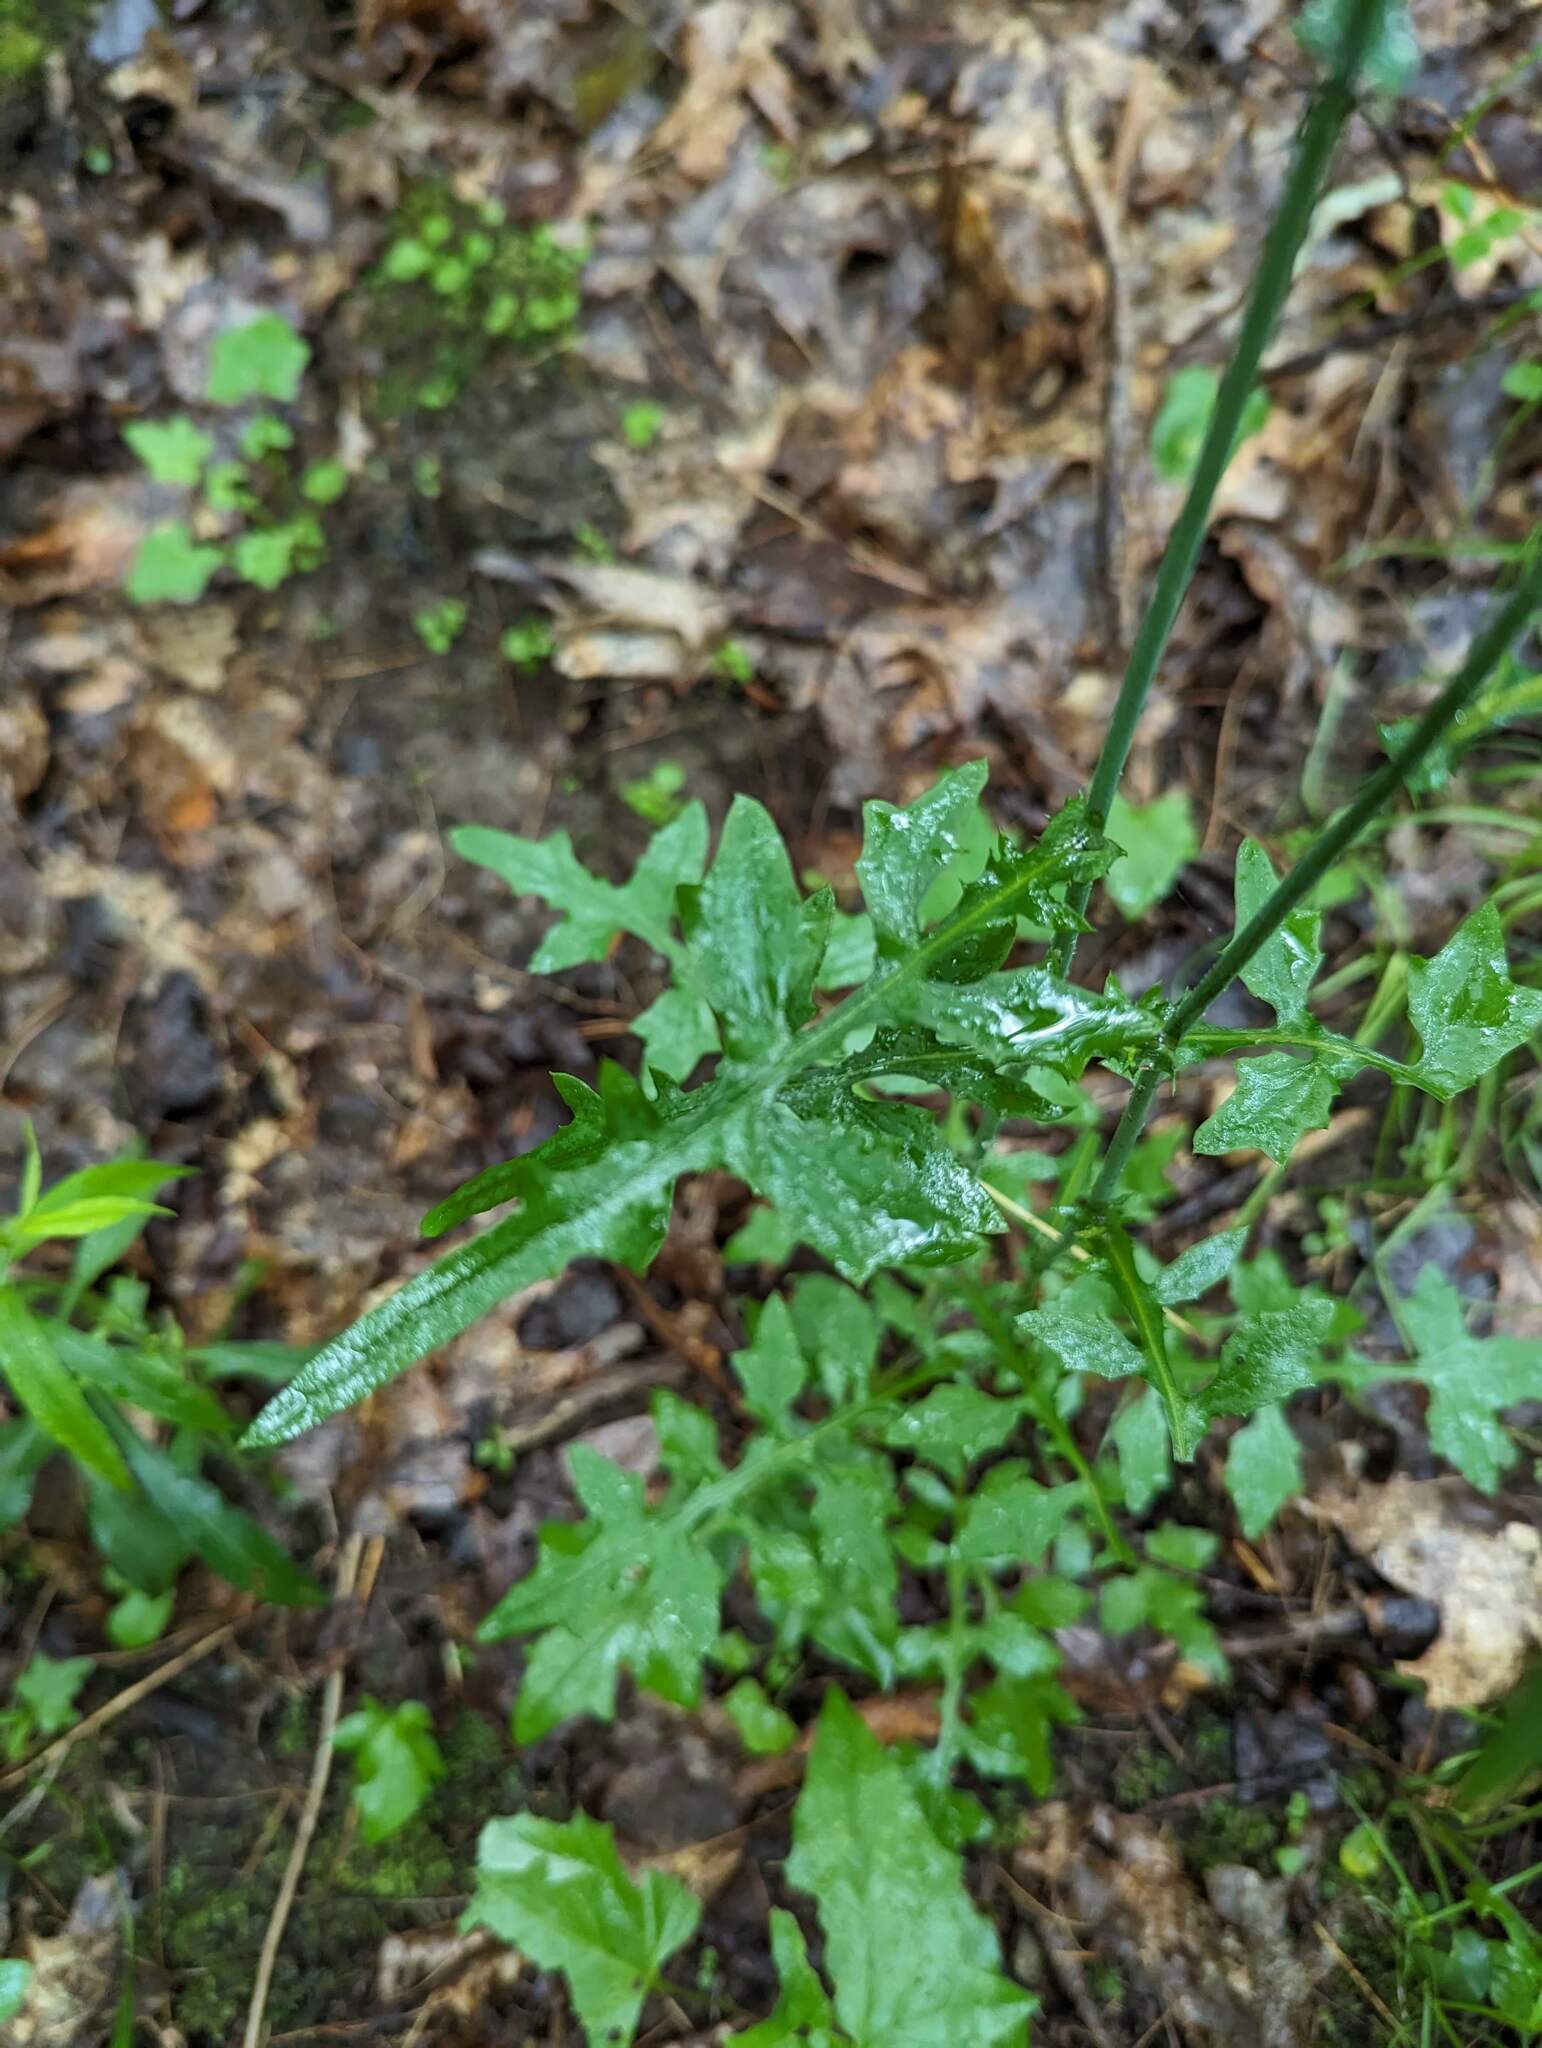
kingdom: Plantae
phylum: Tracheophyta
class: Magnoliopsida
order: Asterales
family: Asteraceae
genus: Mycelis
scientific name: Mycelis muralis
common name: Wall lettuce
